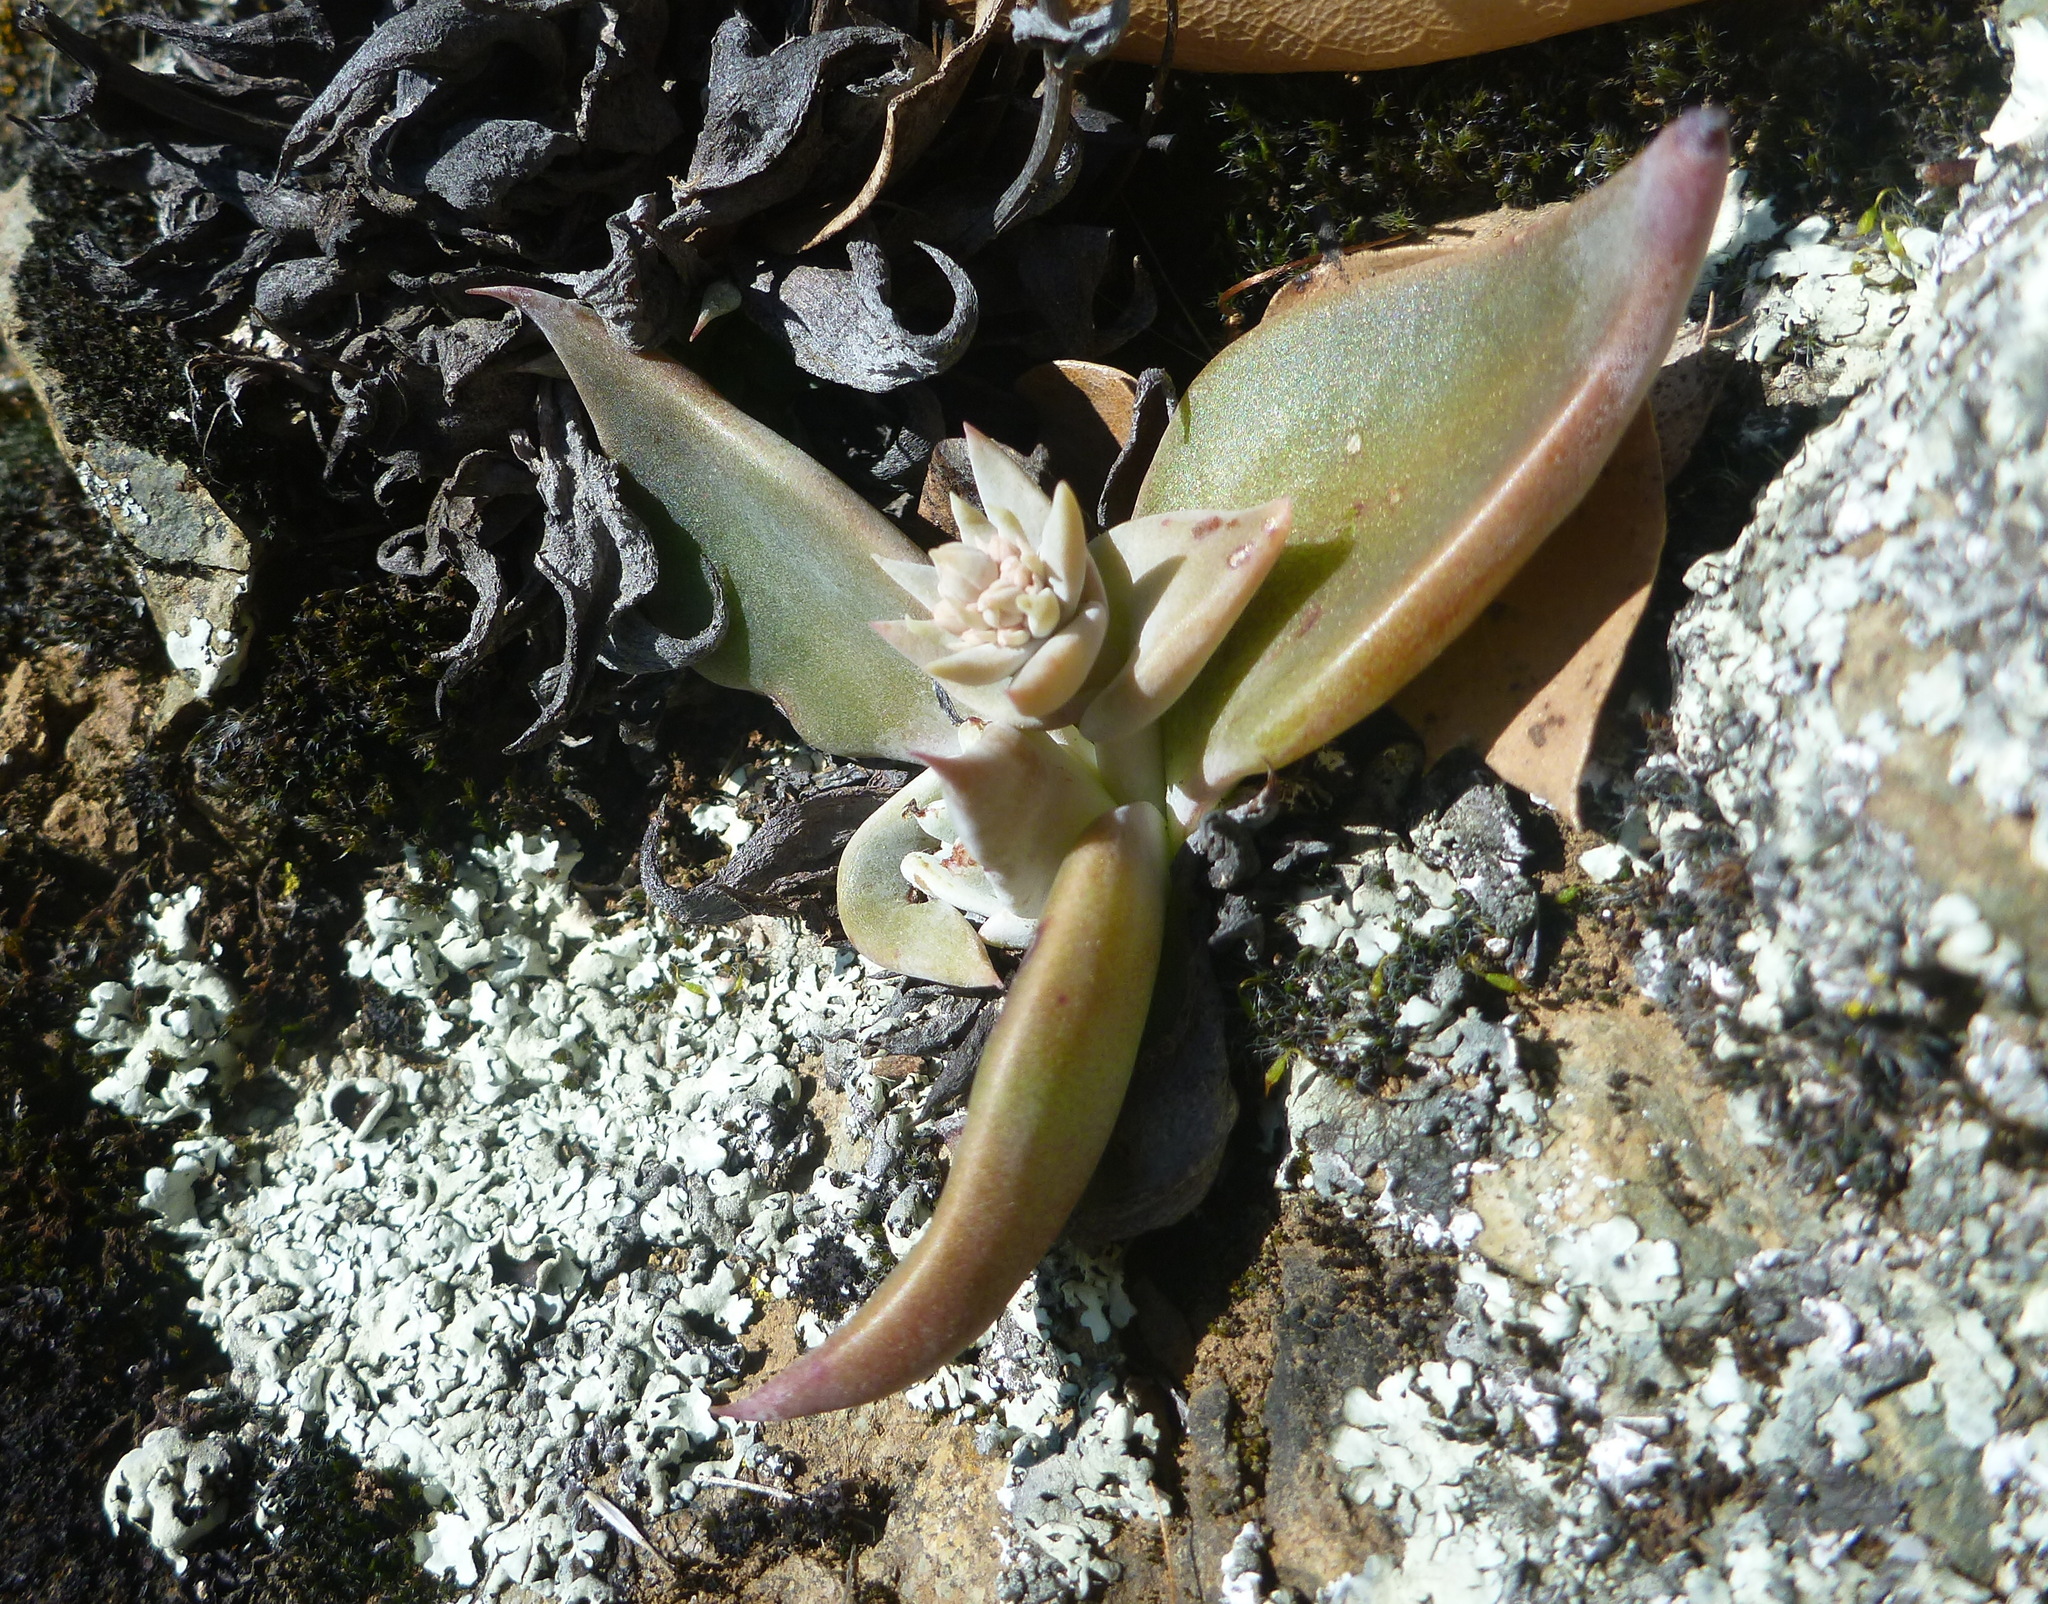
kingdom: Plantae
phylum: Tracheophyta
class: Magnoliopsida
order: Saxifragales
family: Crassulaceae
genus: Dudleya
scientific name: Dudleya cymosa
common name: Canyon dudleya
